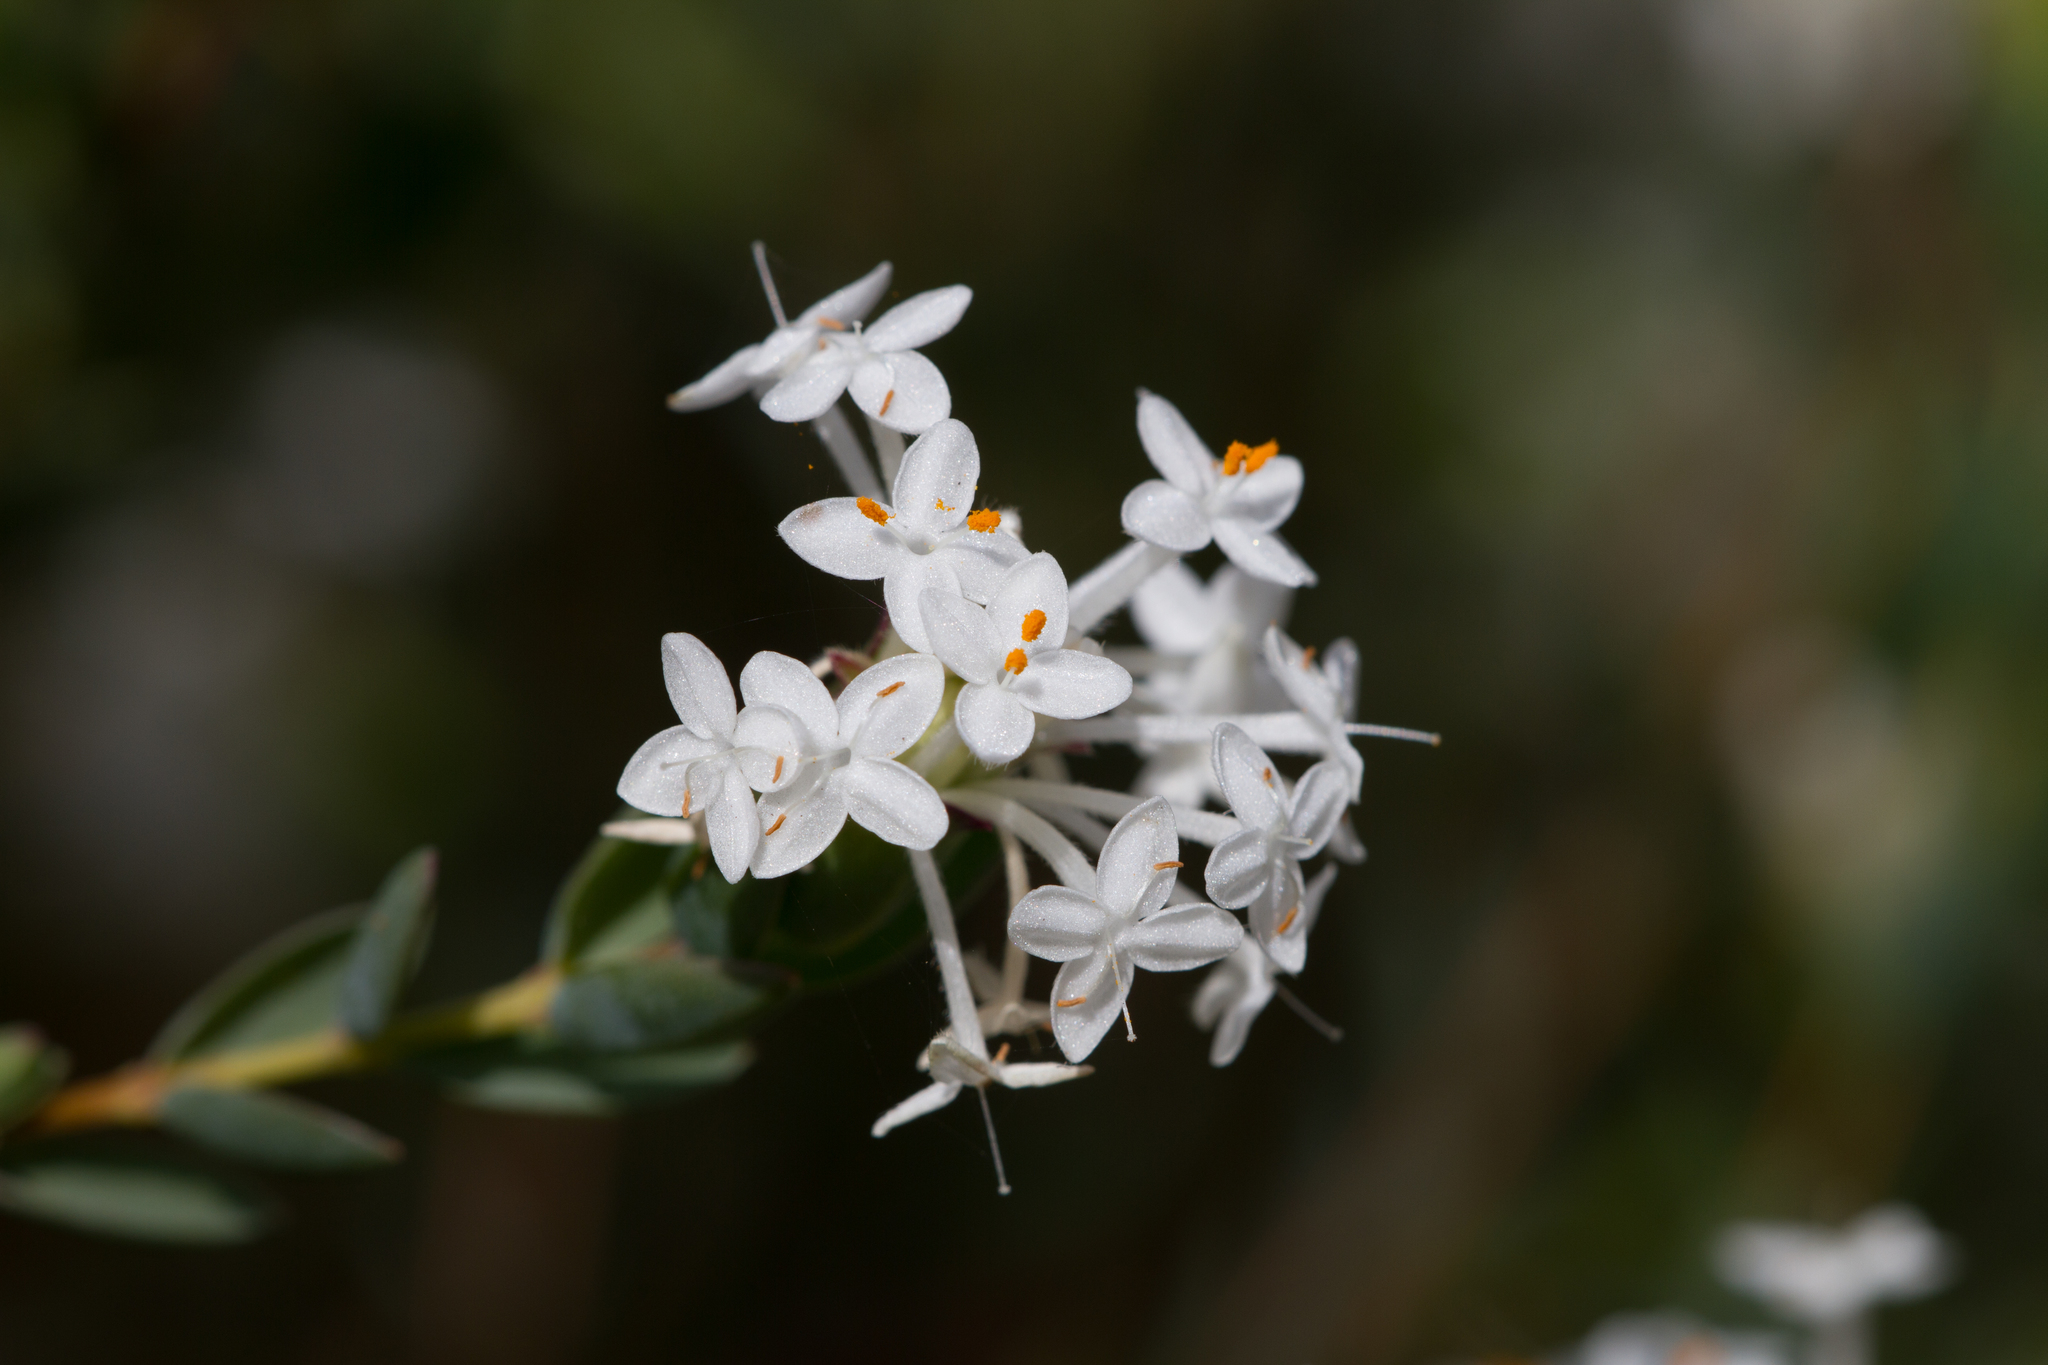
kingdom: Plantae
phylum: Tracheophyta
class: Magnoliopsida
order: Malvales
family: Thymelaeaceae
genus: Pimelea
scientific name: Pimelea glauca
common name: Smooth riceflower
